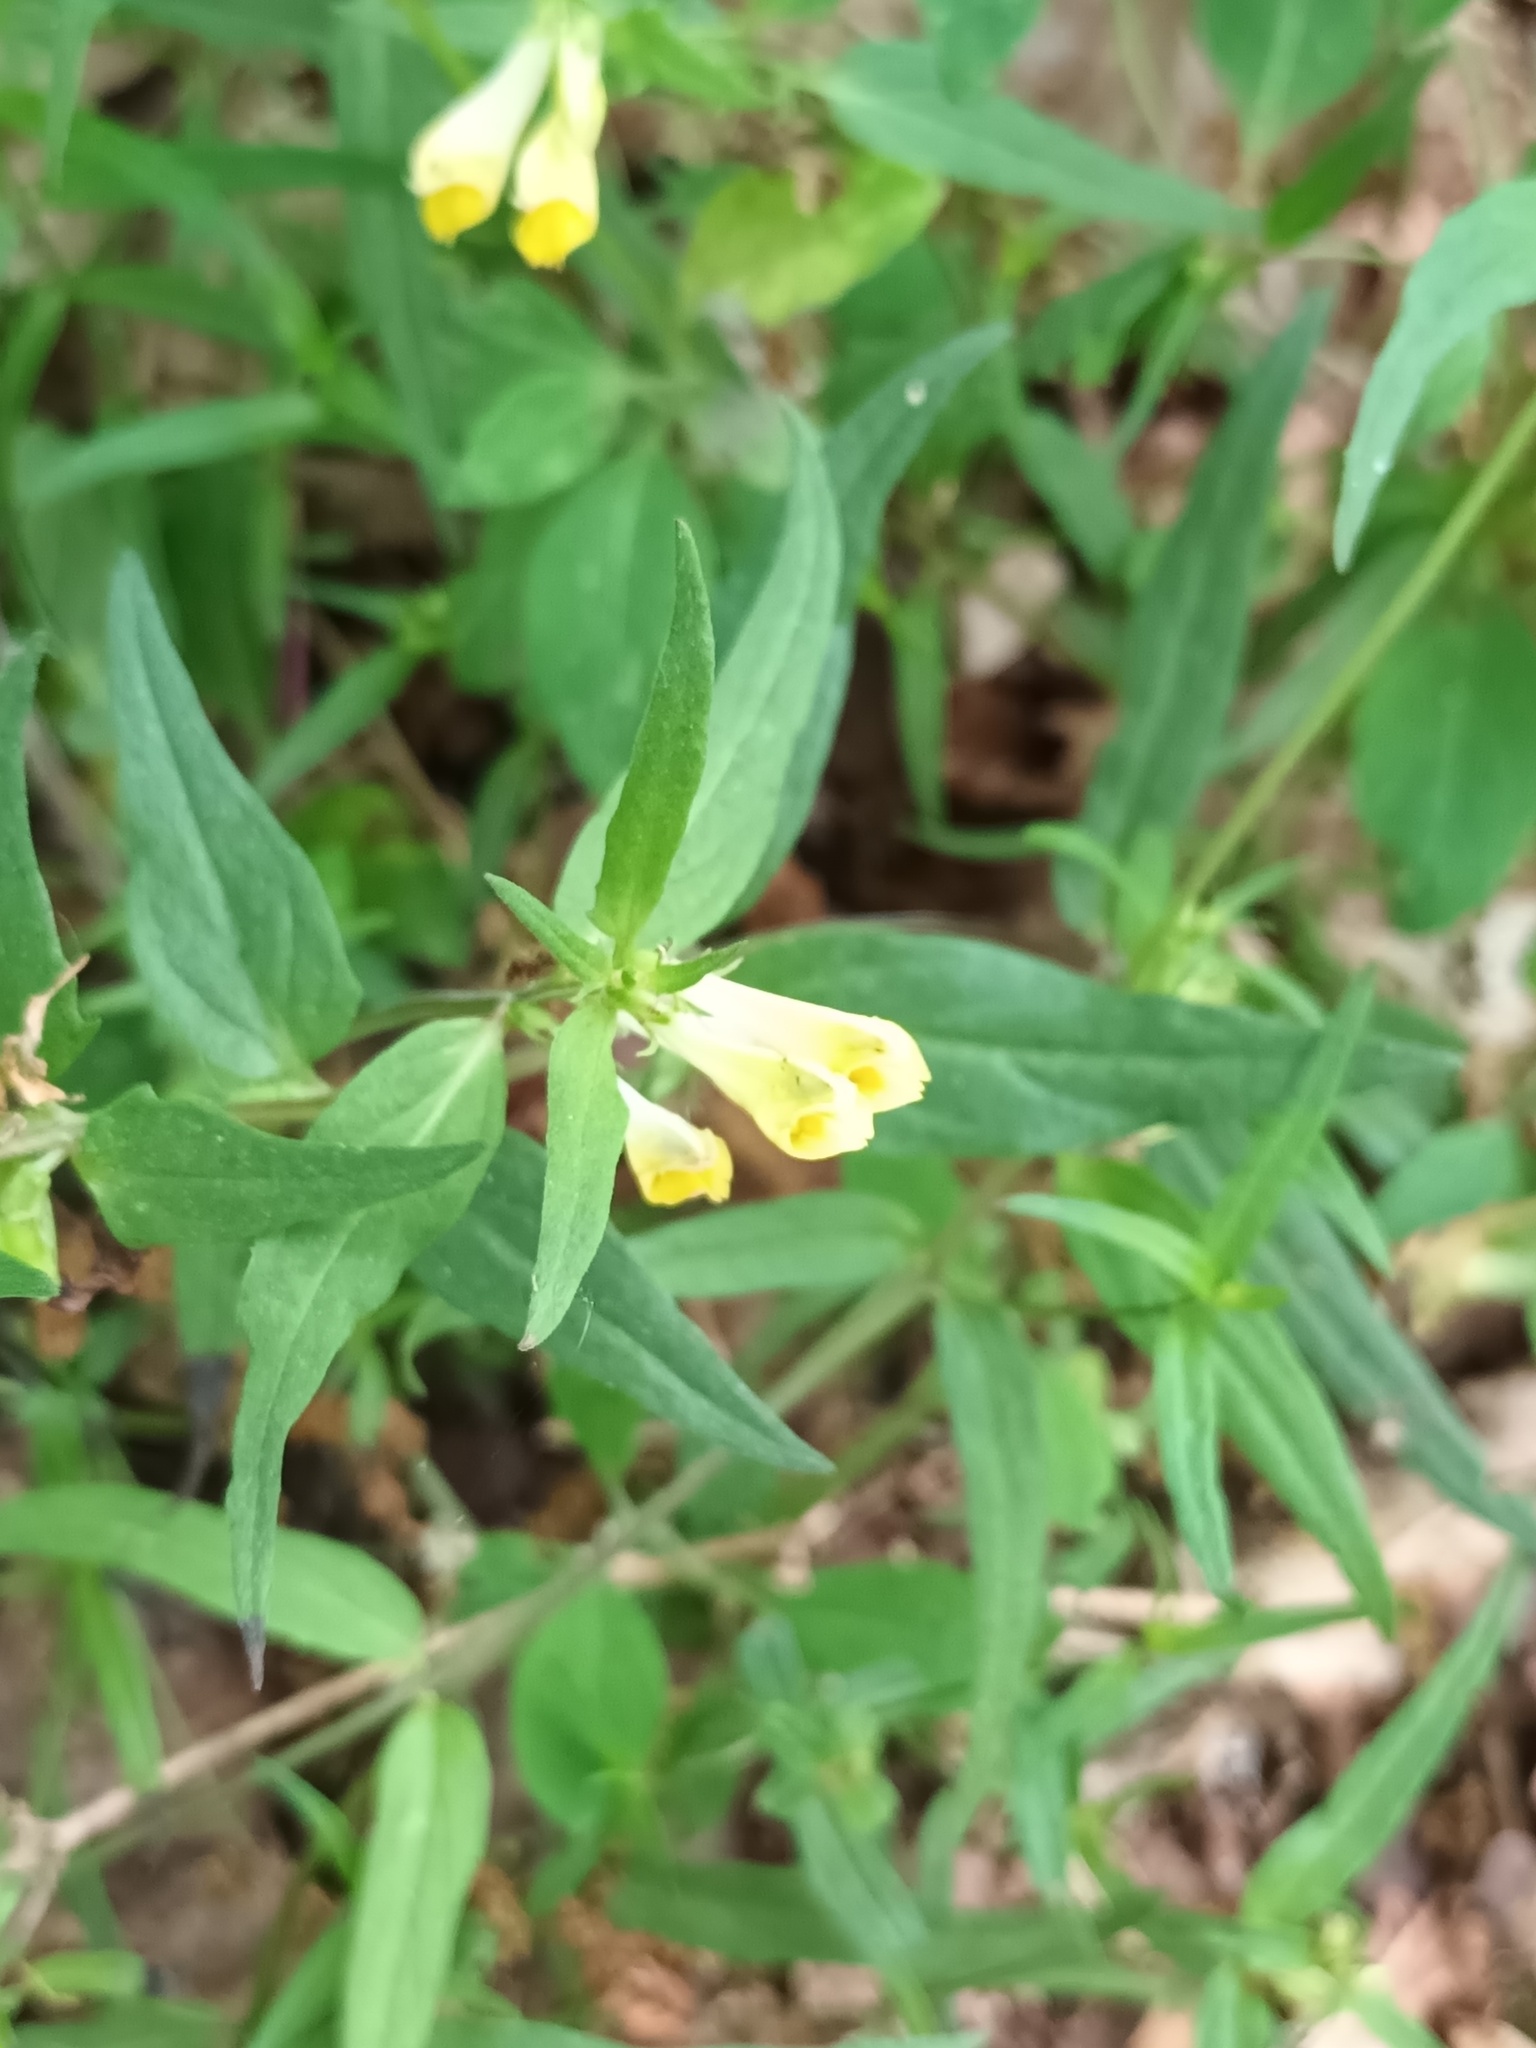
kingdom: Plantae
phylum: Tracheophyta
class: Magnoliopsida
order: Lamiales
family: Orobanchaceae
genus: Melampyrum
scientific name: Melampyrum pratense
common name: Common cow-wheat
